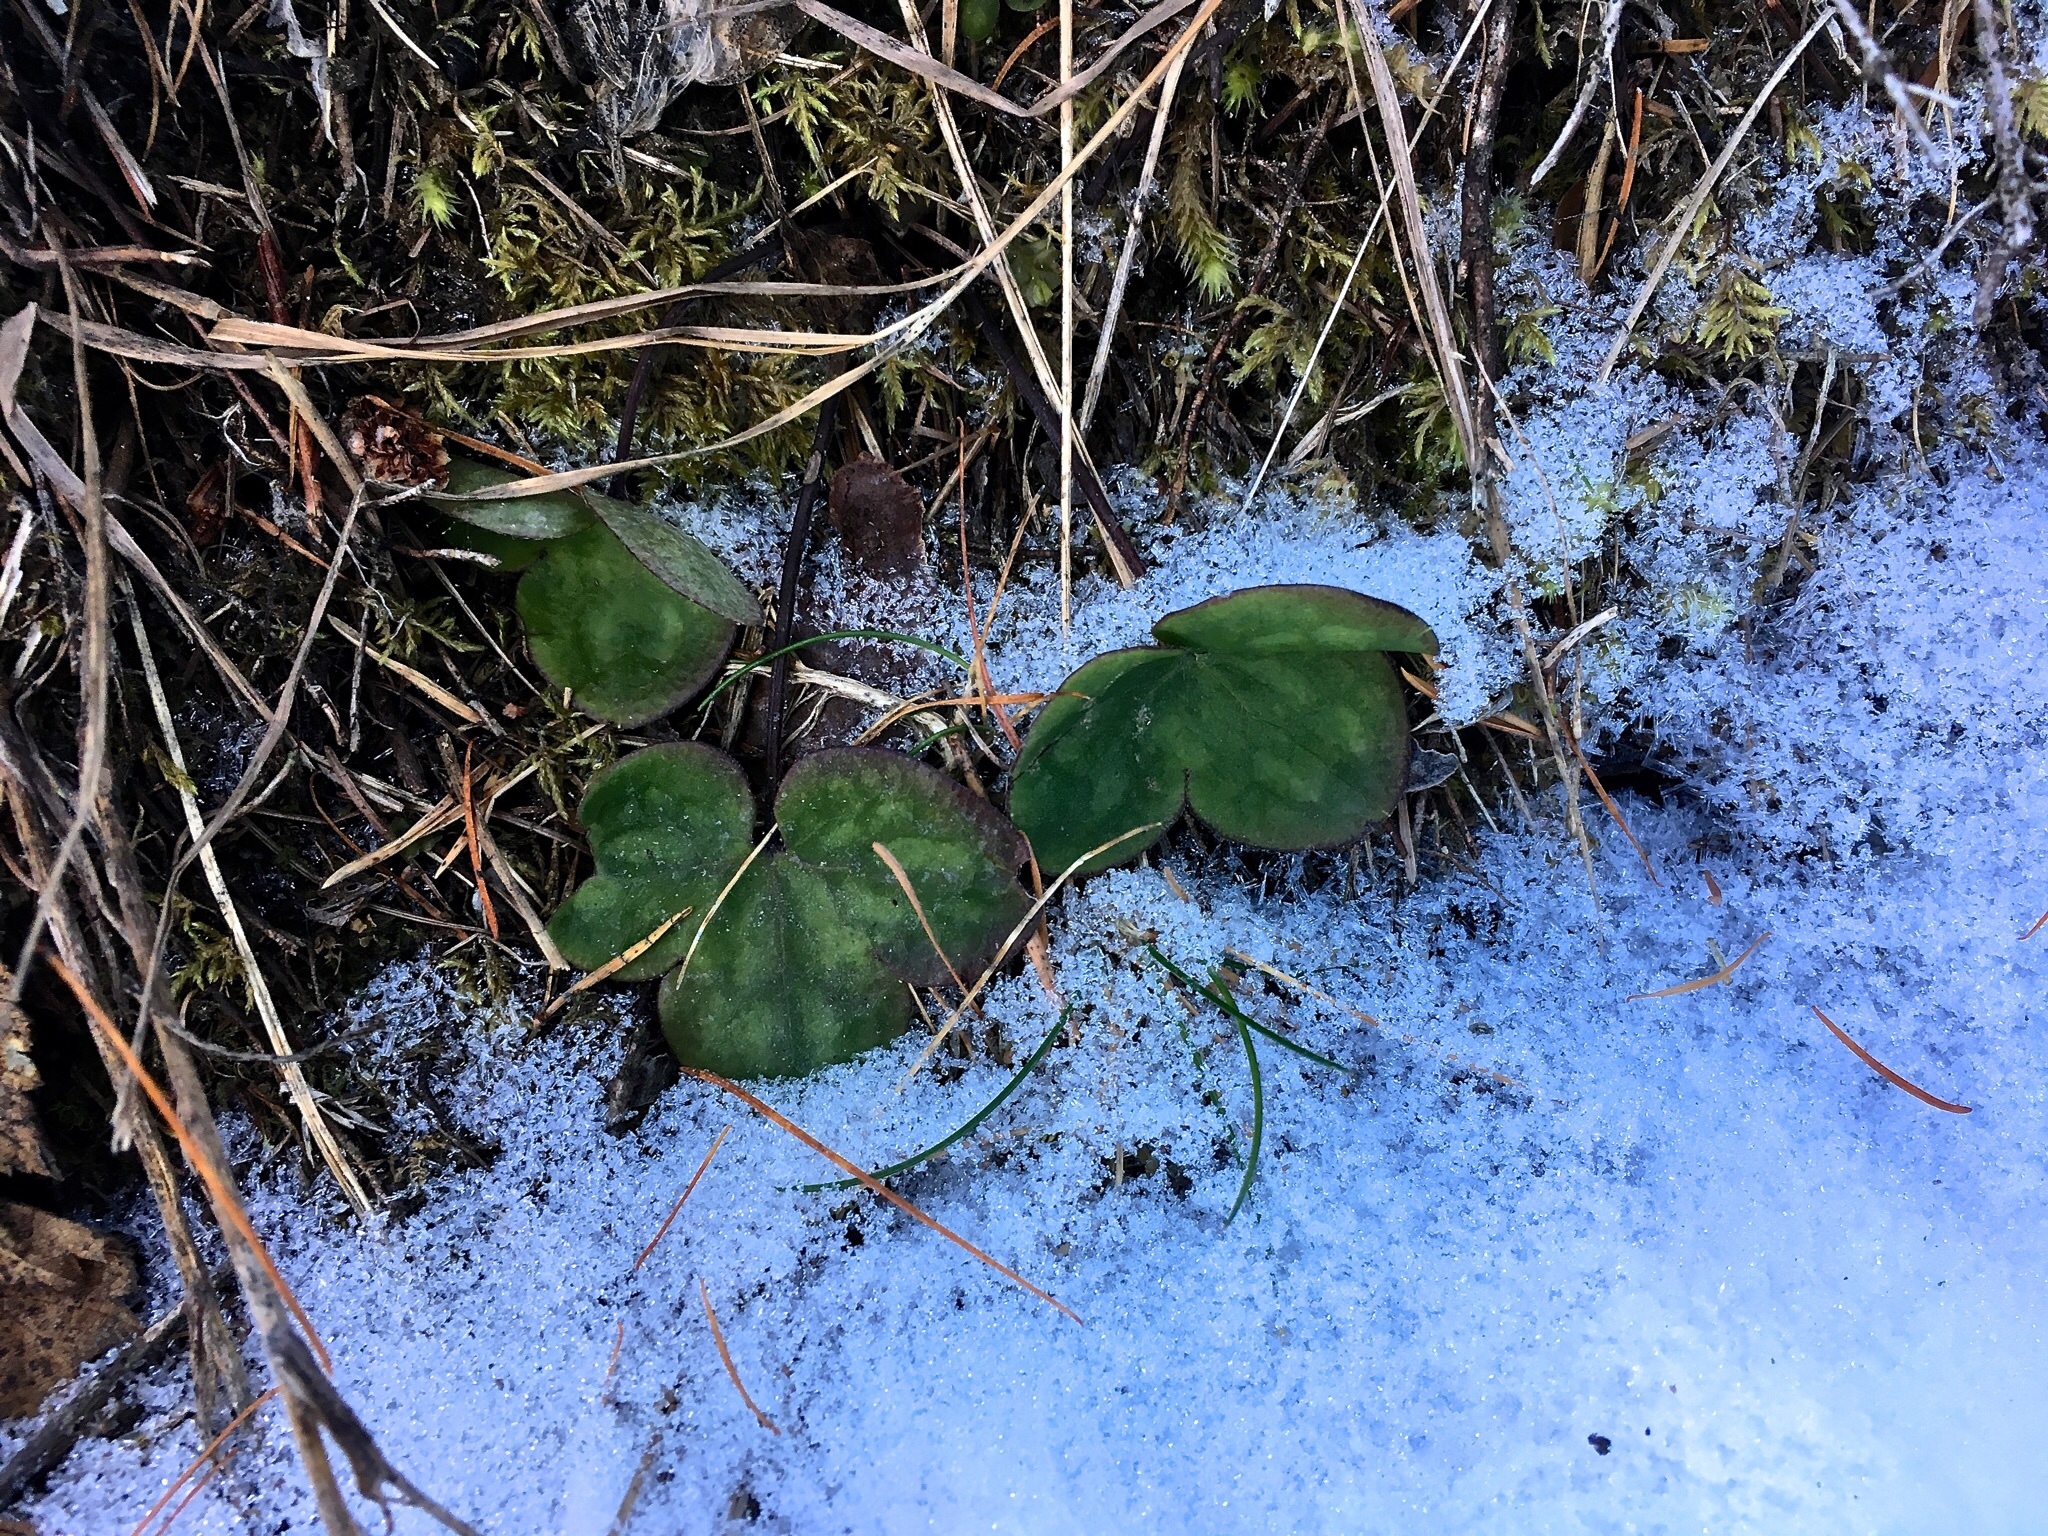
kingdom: Plantae
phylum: Tracheophyta
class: Magnoliopsida
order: Ranunculales
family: Ranunculaceae
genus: Hepatica
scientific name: Hepatica nobilis
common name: Liverleaf
